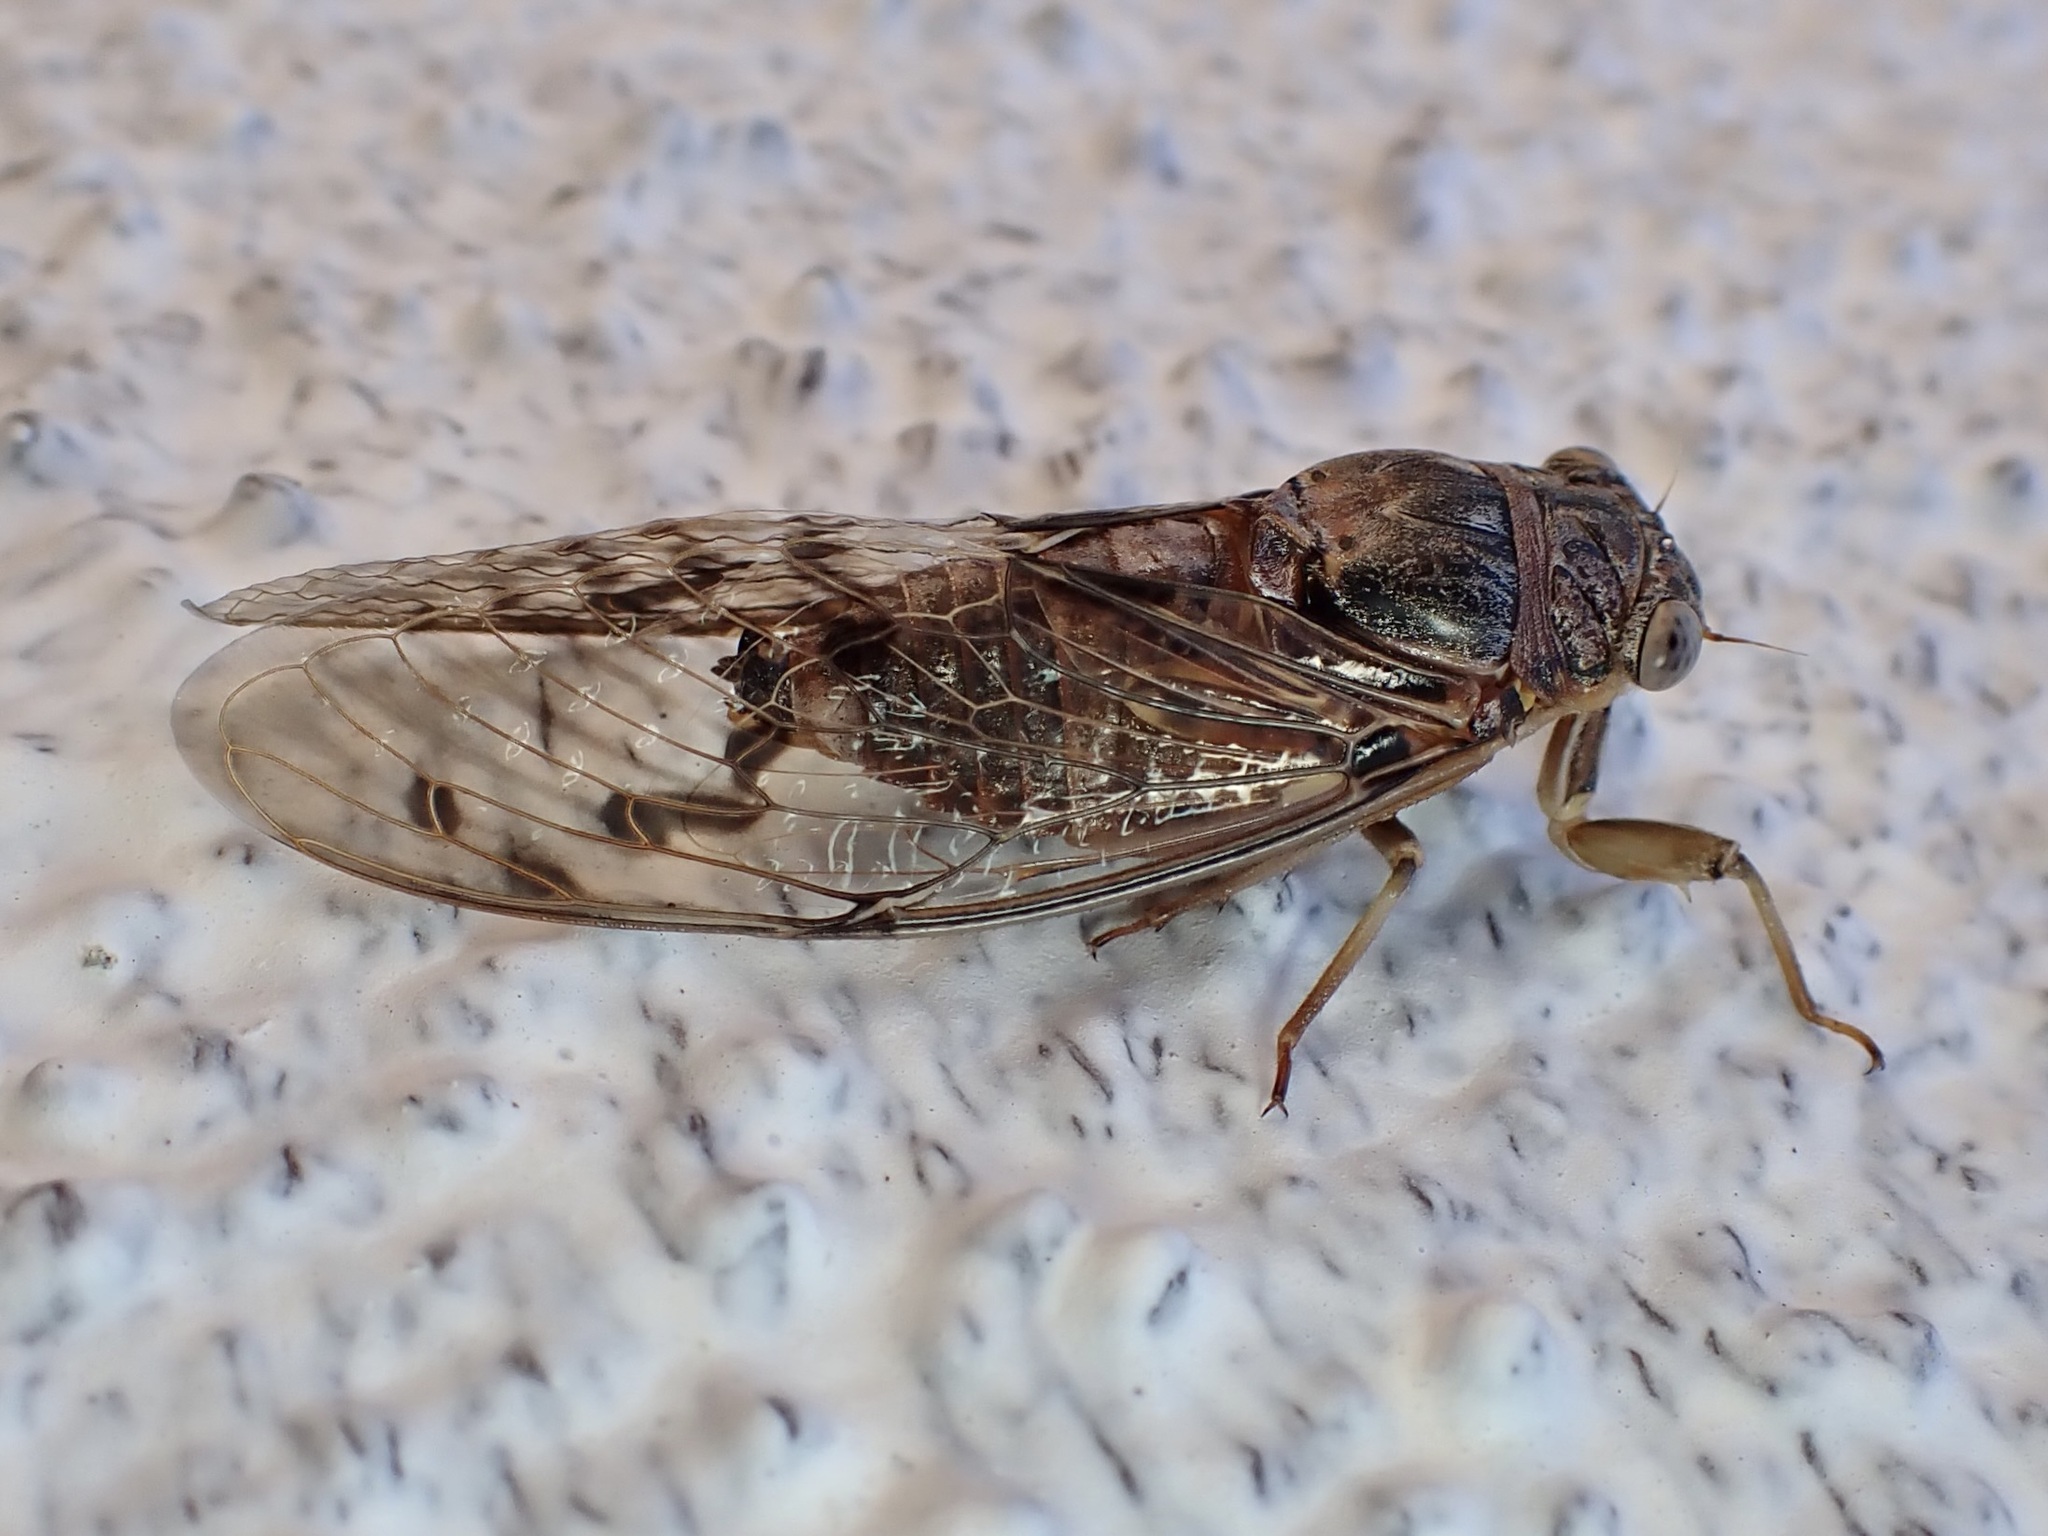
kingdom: Animalia
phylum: Arthropoda
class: Insecta
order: Hemiptera
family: Cicadidae
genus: Diceroprocta
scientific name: Diceroprocta swalei
